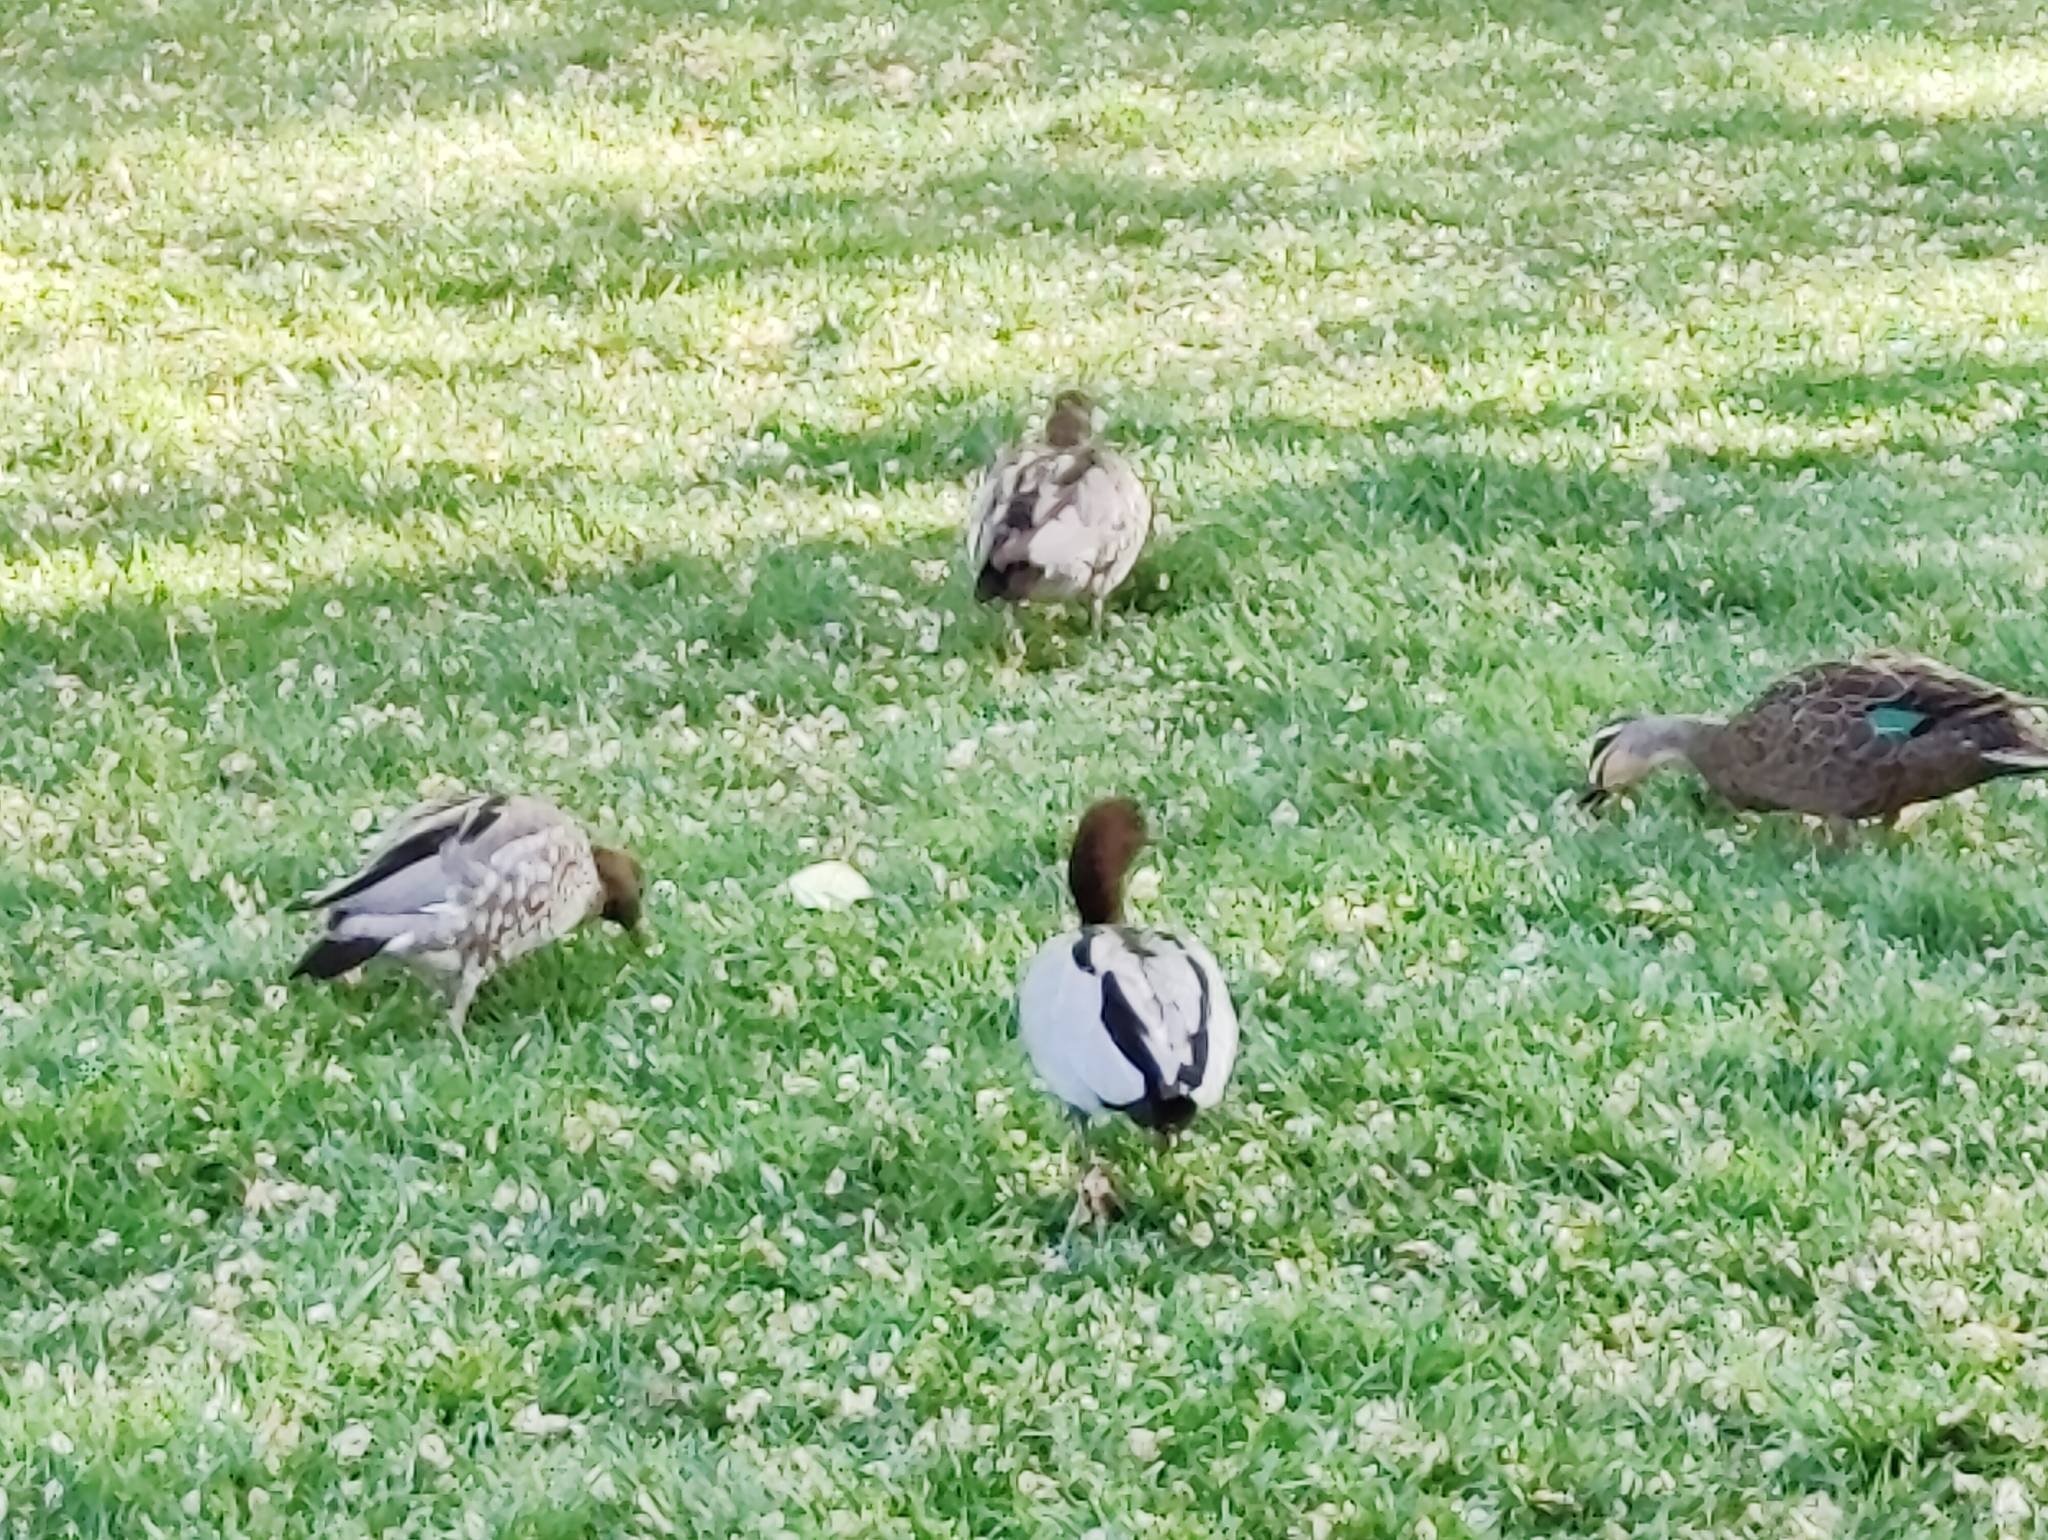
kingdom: Animalia
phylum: Chordata
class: Aves
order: Anseriformes
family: Anatidae
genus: Chenonetta
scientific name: Chenonetta jubata
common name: Maned duck
